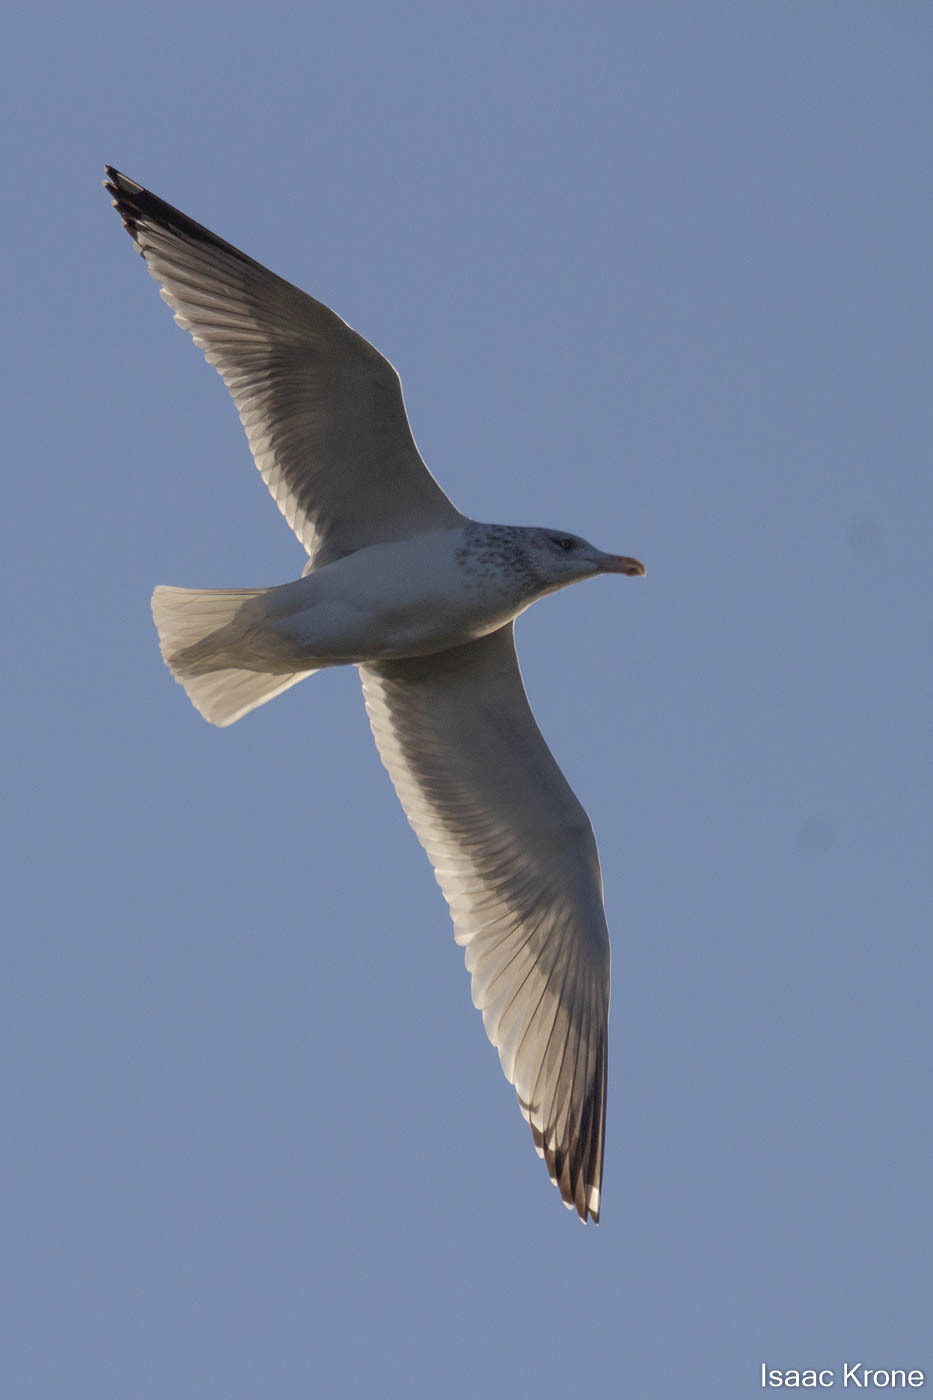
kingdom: Animalia
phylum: Chordata
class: Aves
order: Charadriiformes
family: Laridae
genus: Larus
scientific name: Larus argentatus
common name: Herring gull
